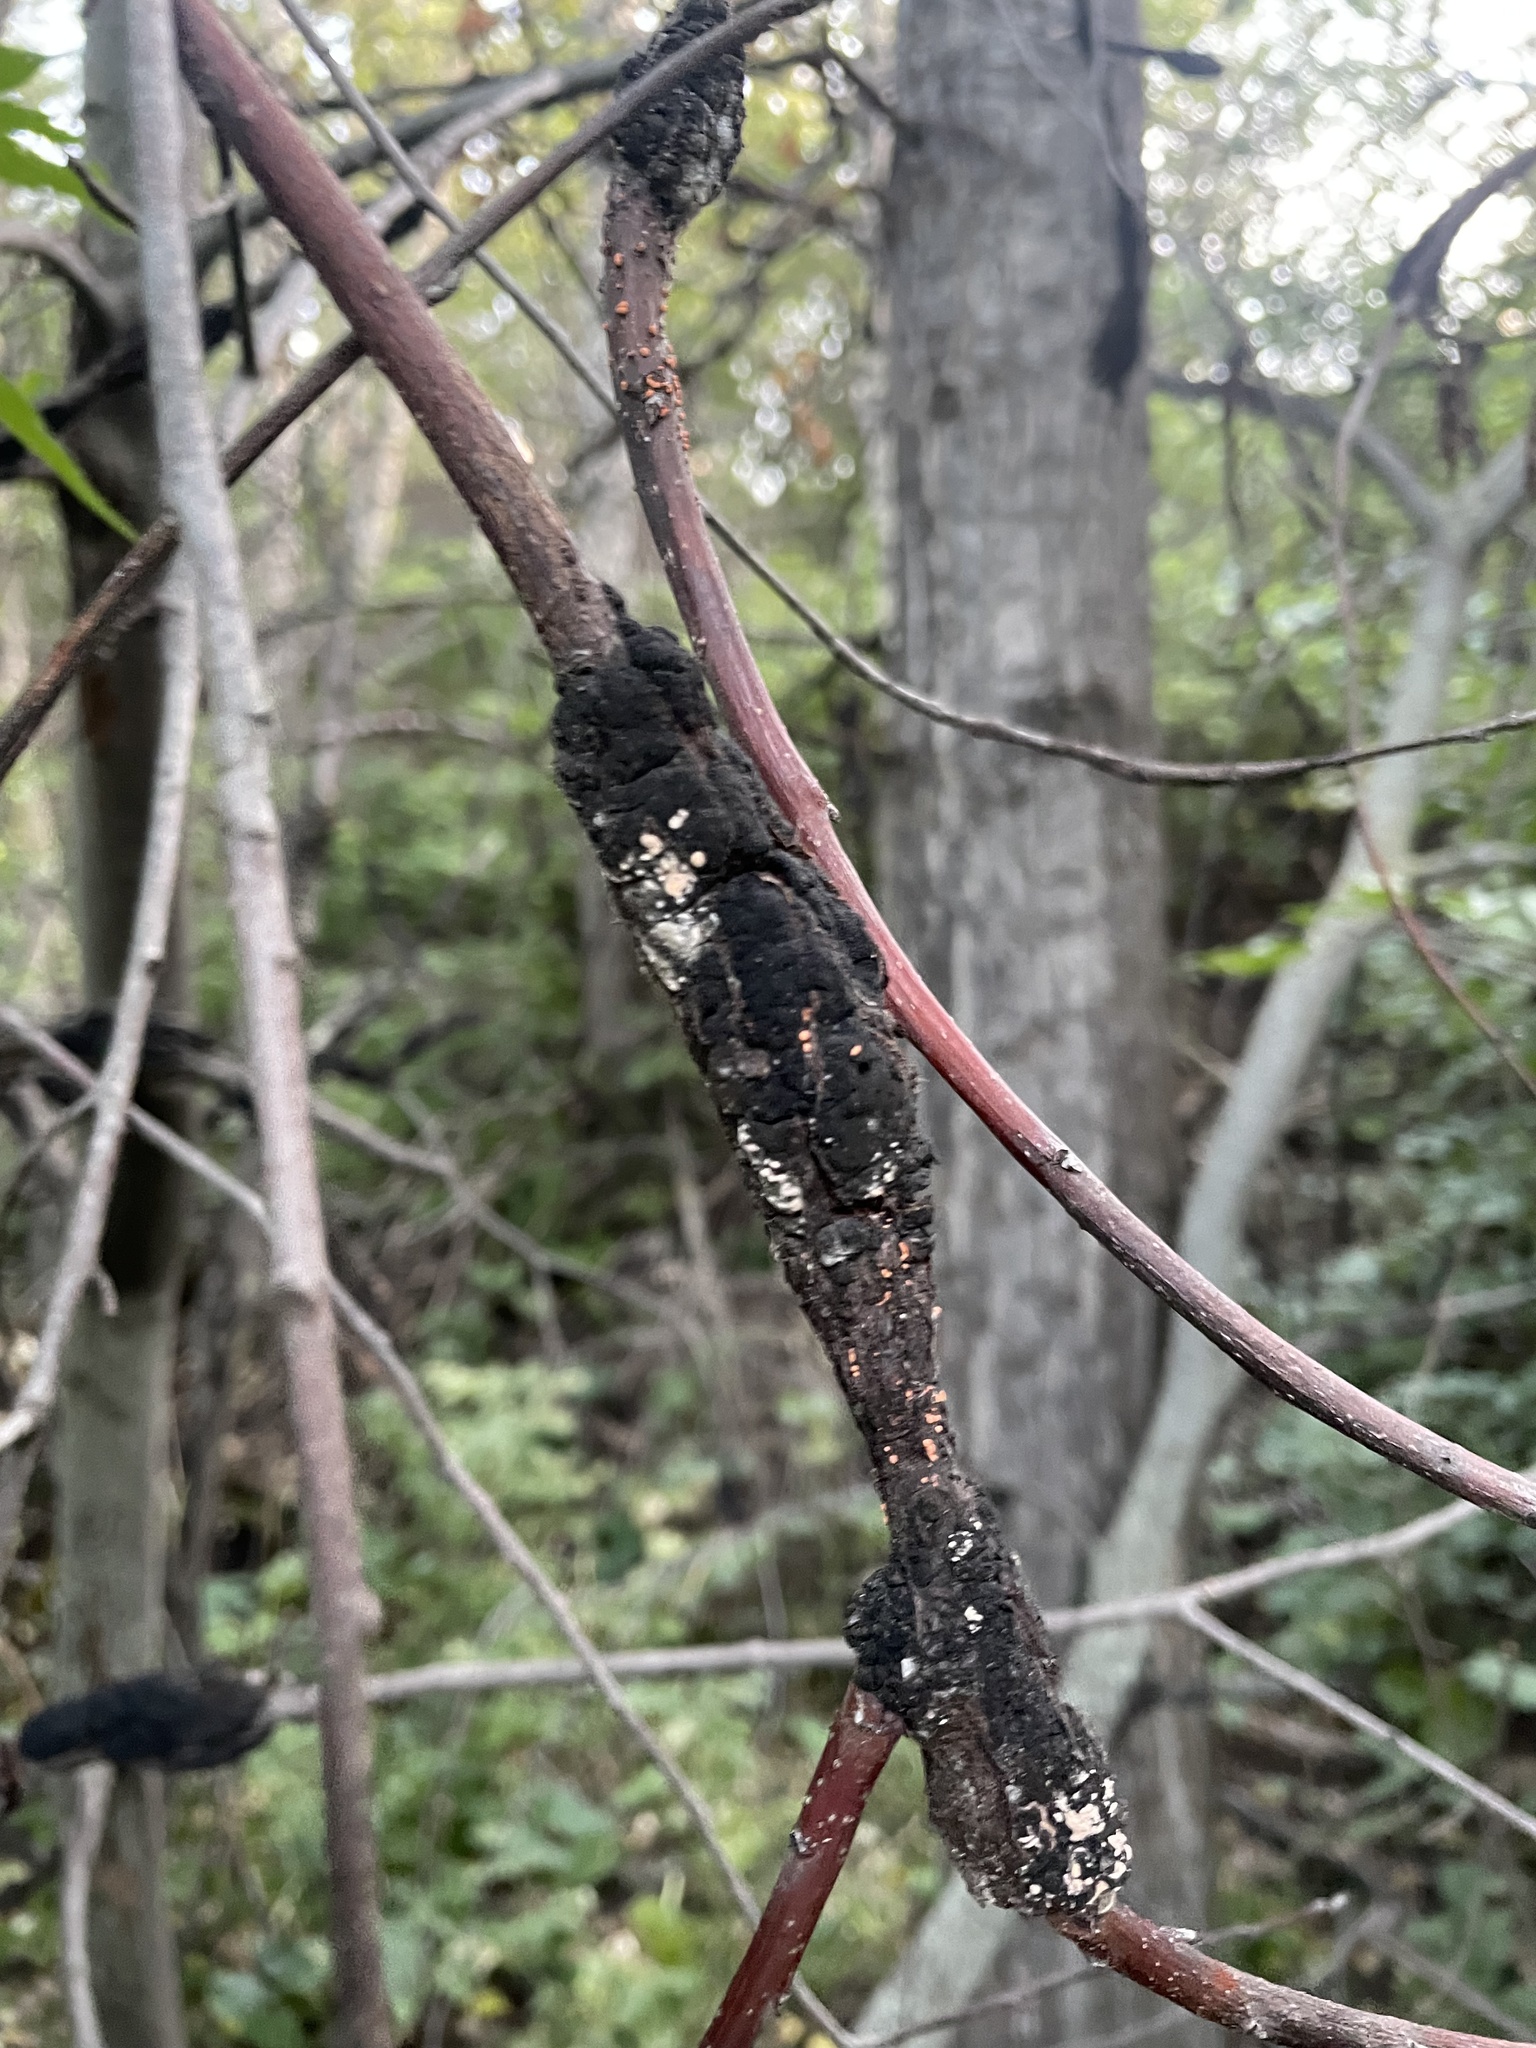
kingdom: Fungi
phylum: Ascomycota
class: Dothideomycetes
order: Venturiales
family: Venturiaceae
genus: Apiosporina
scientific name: Apiosporina morbosa
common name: Black knot
